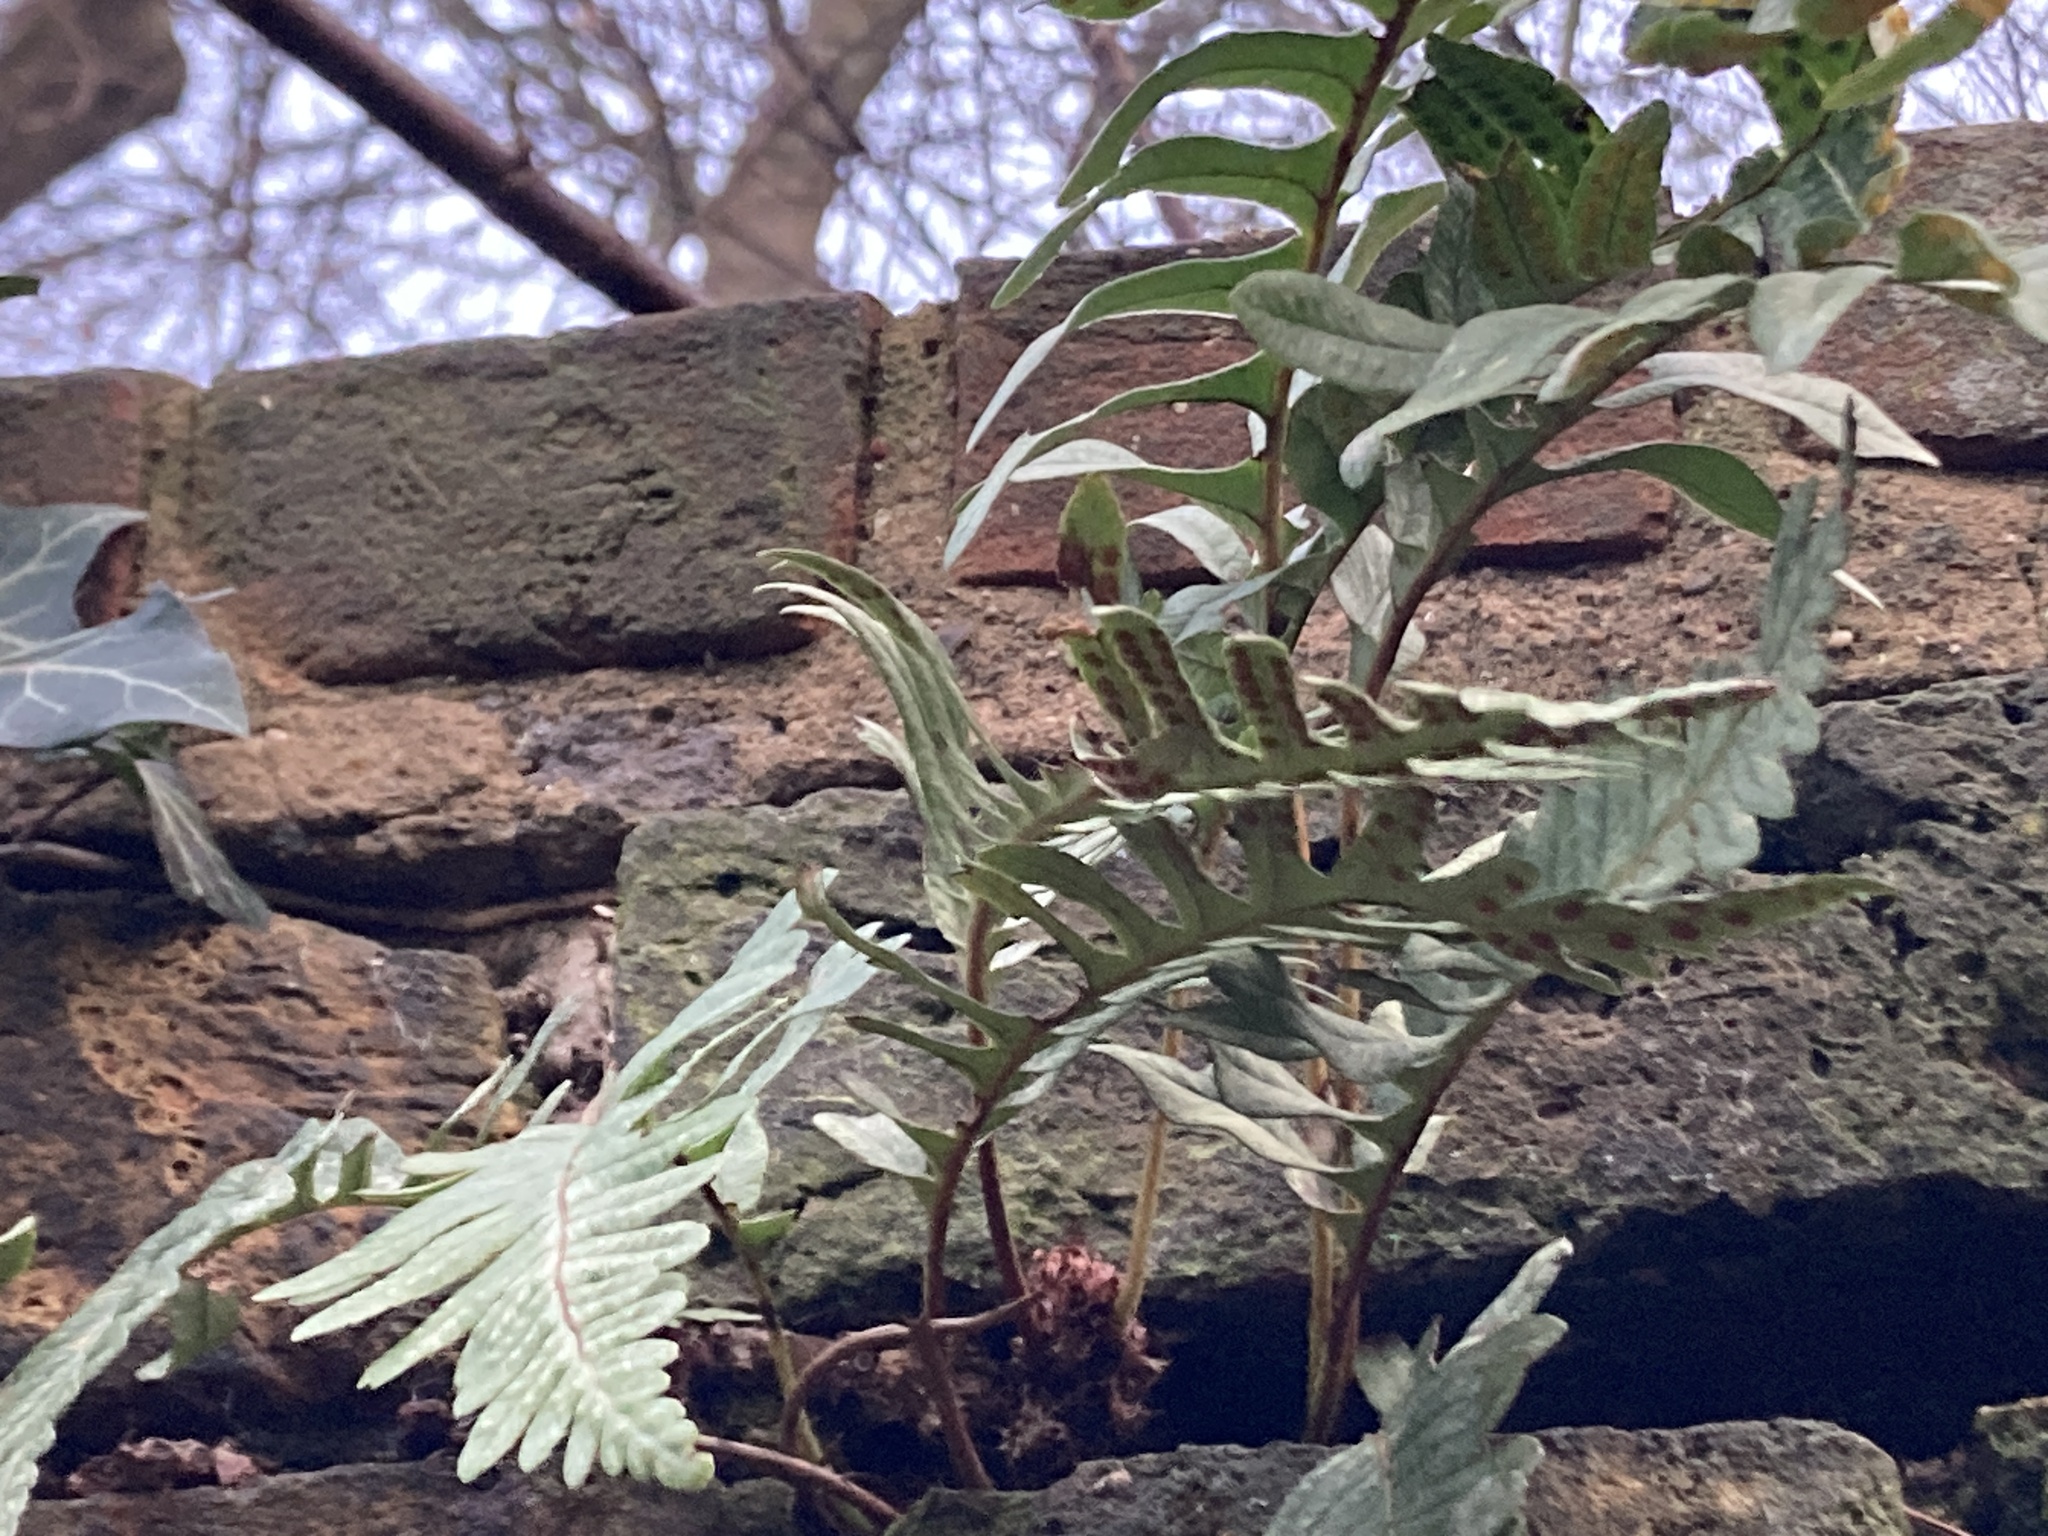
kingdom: Plantae
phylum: Tracheophyta
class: Polypodiopsida
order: Polypodiales
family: Polypodiaceae
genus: Polypodium
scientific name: Polypodium
